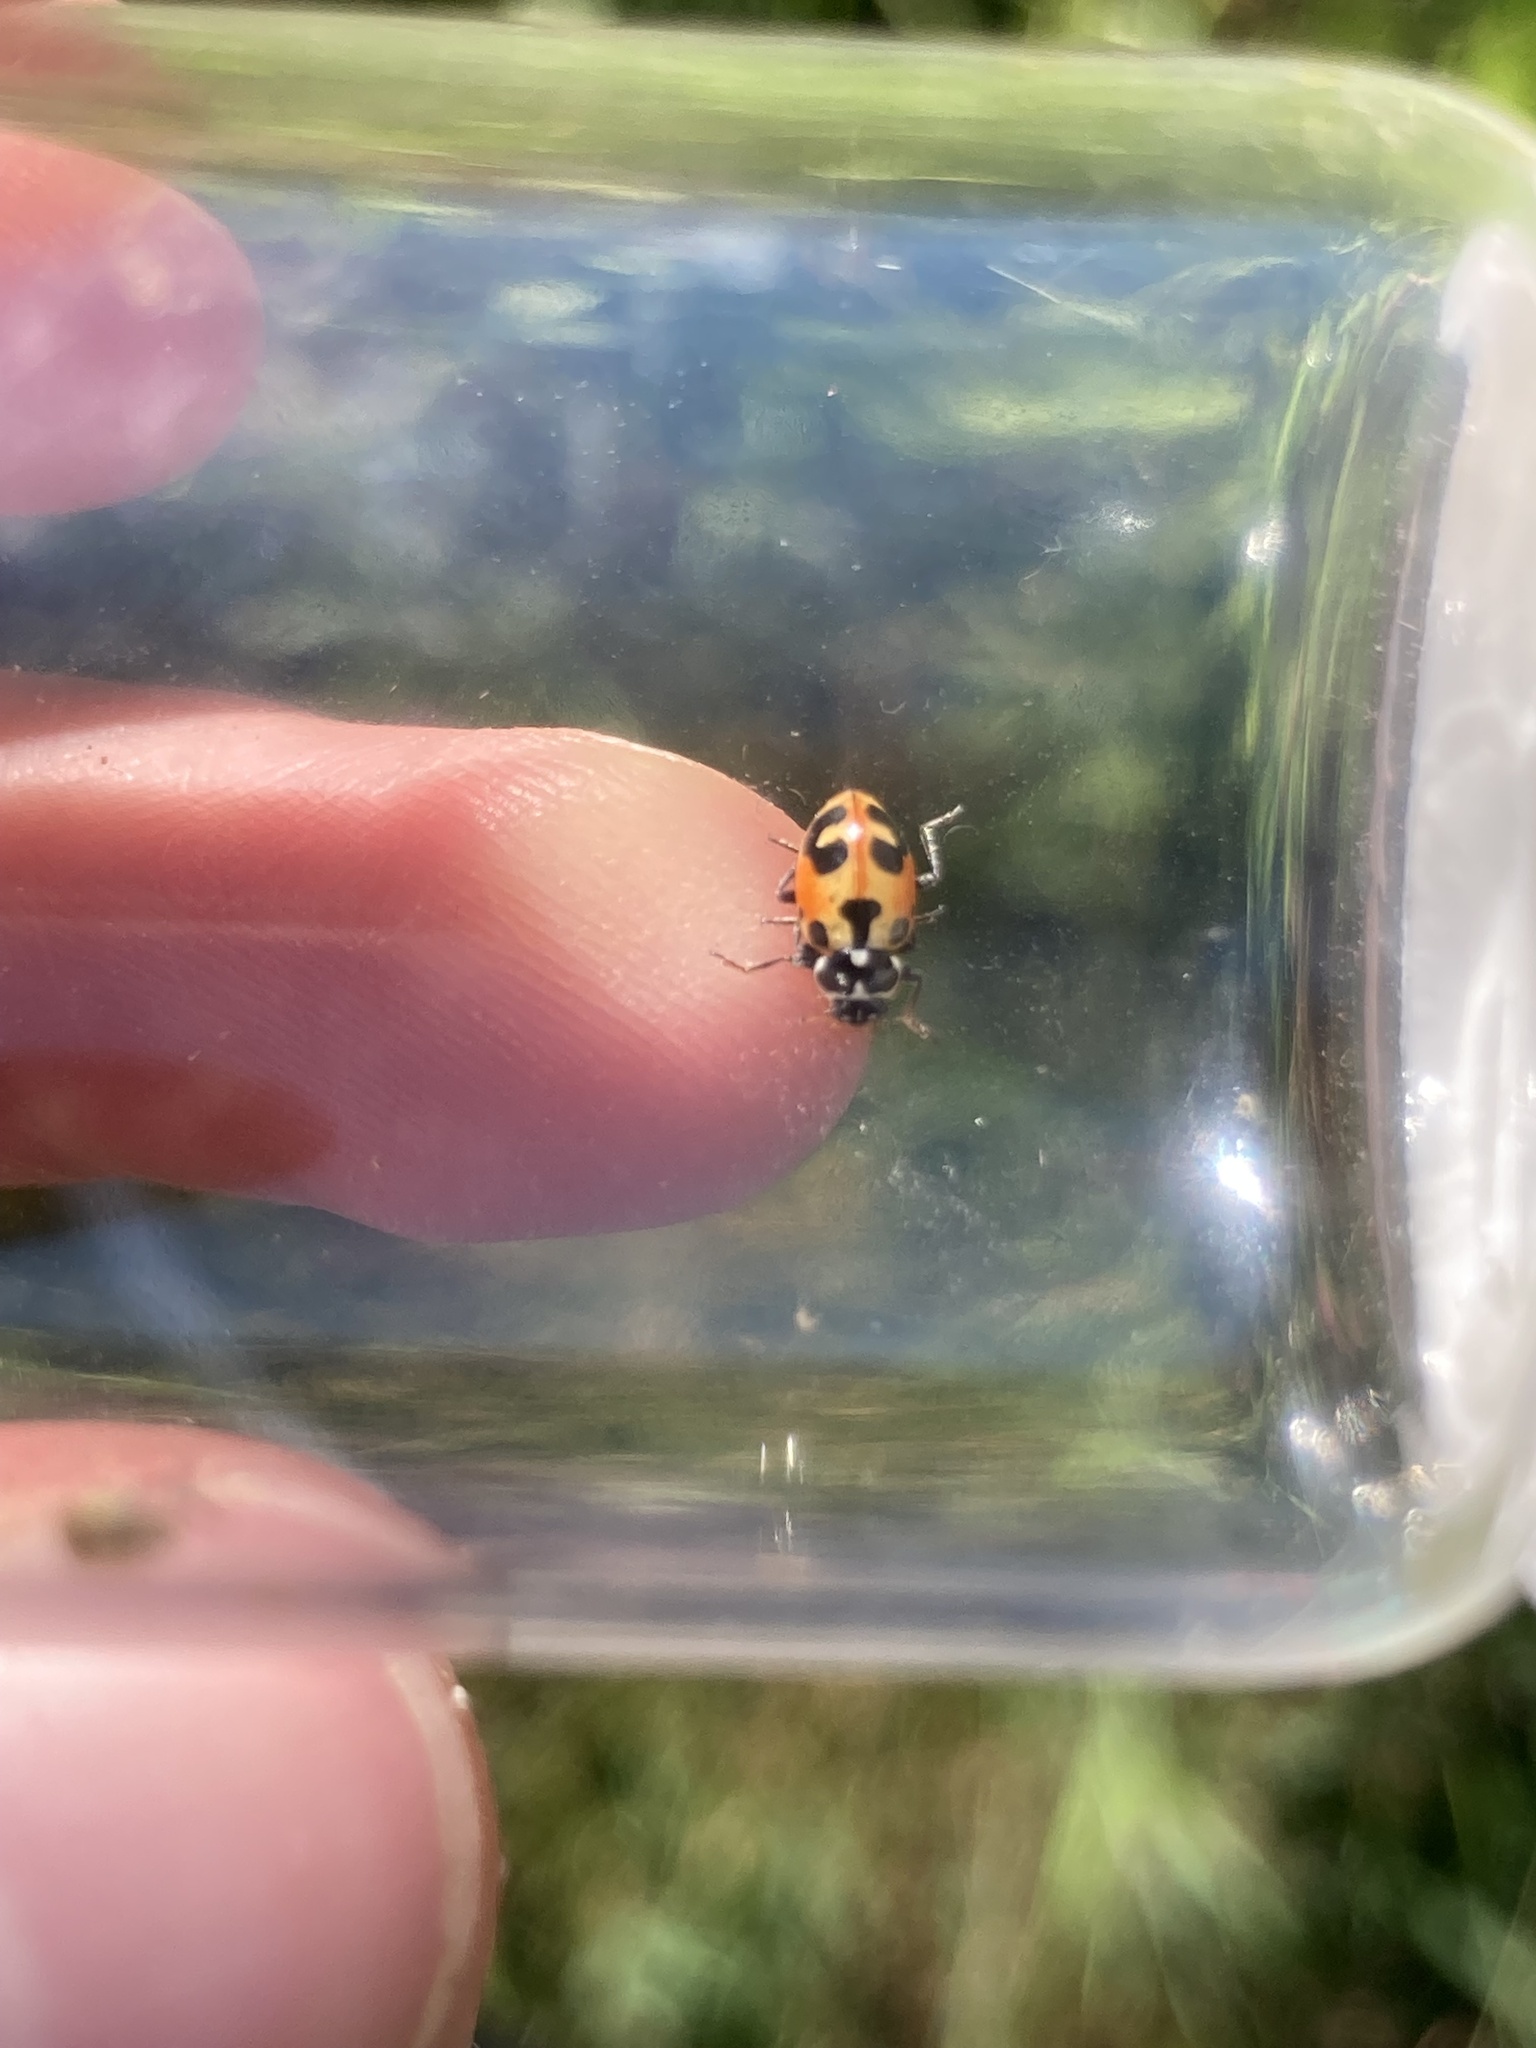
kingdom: Animalia
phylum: Arthropoda
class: Insecta
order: Coleoptera
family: Coccinellidae
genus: Hippodamia
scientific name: Hippodamia parenthesis
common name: Parenthesis lady beetle
